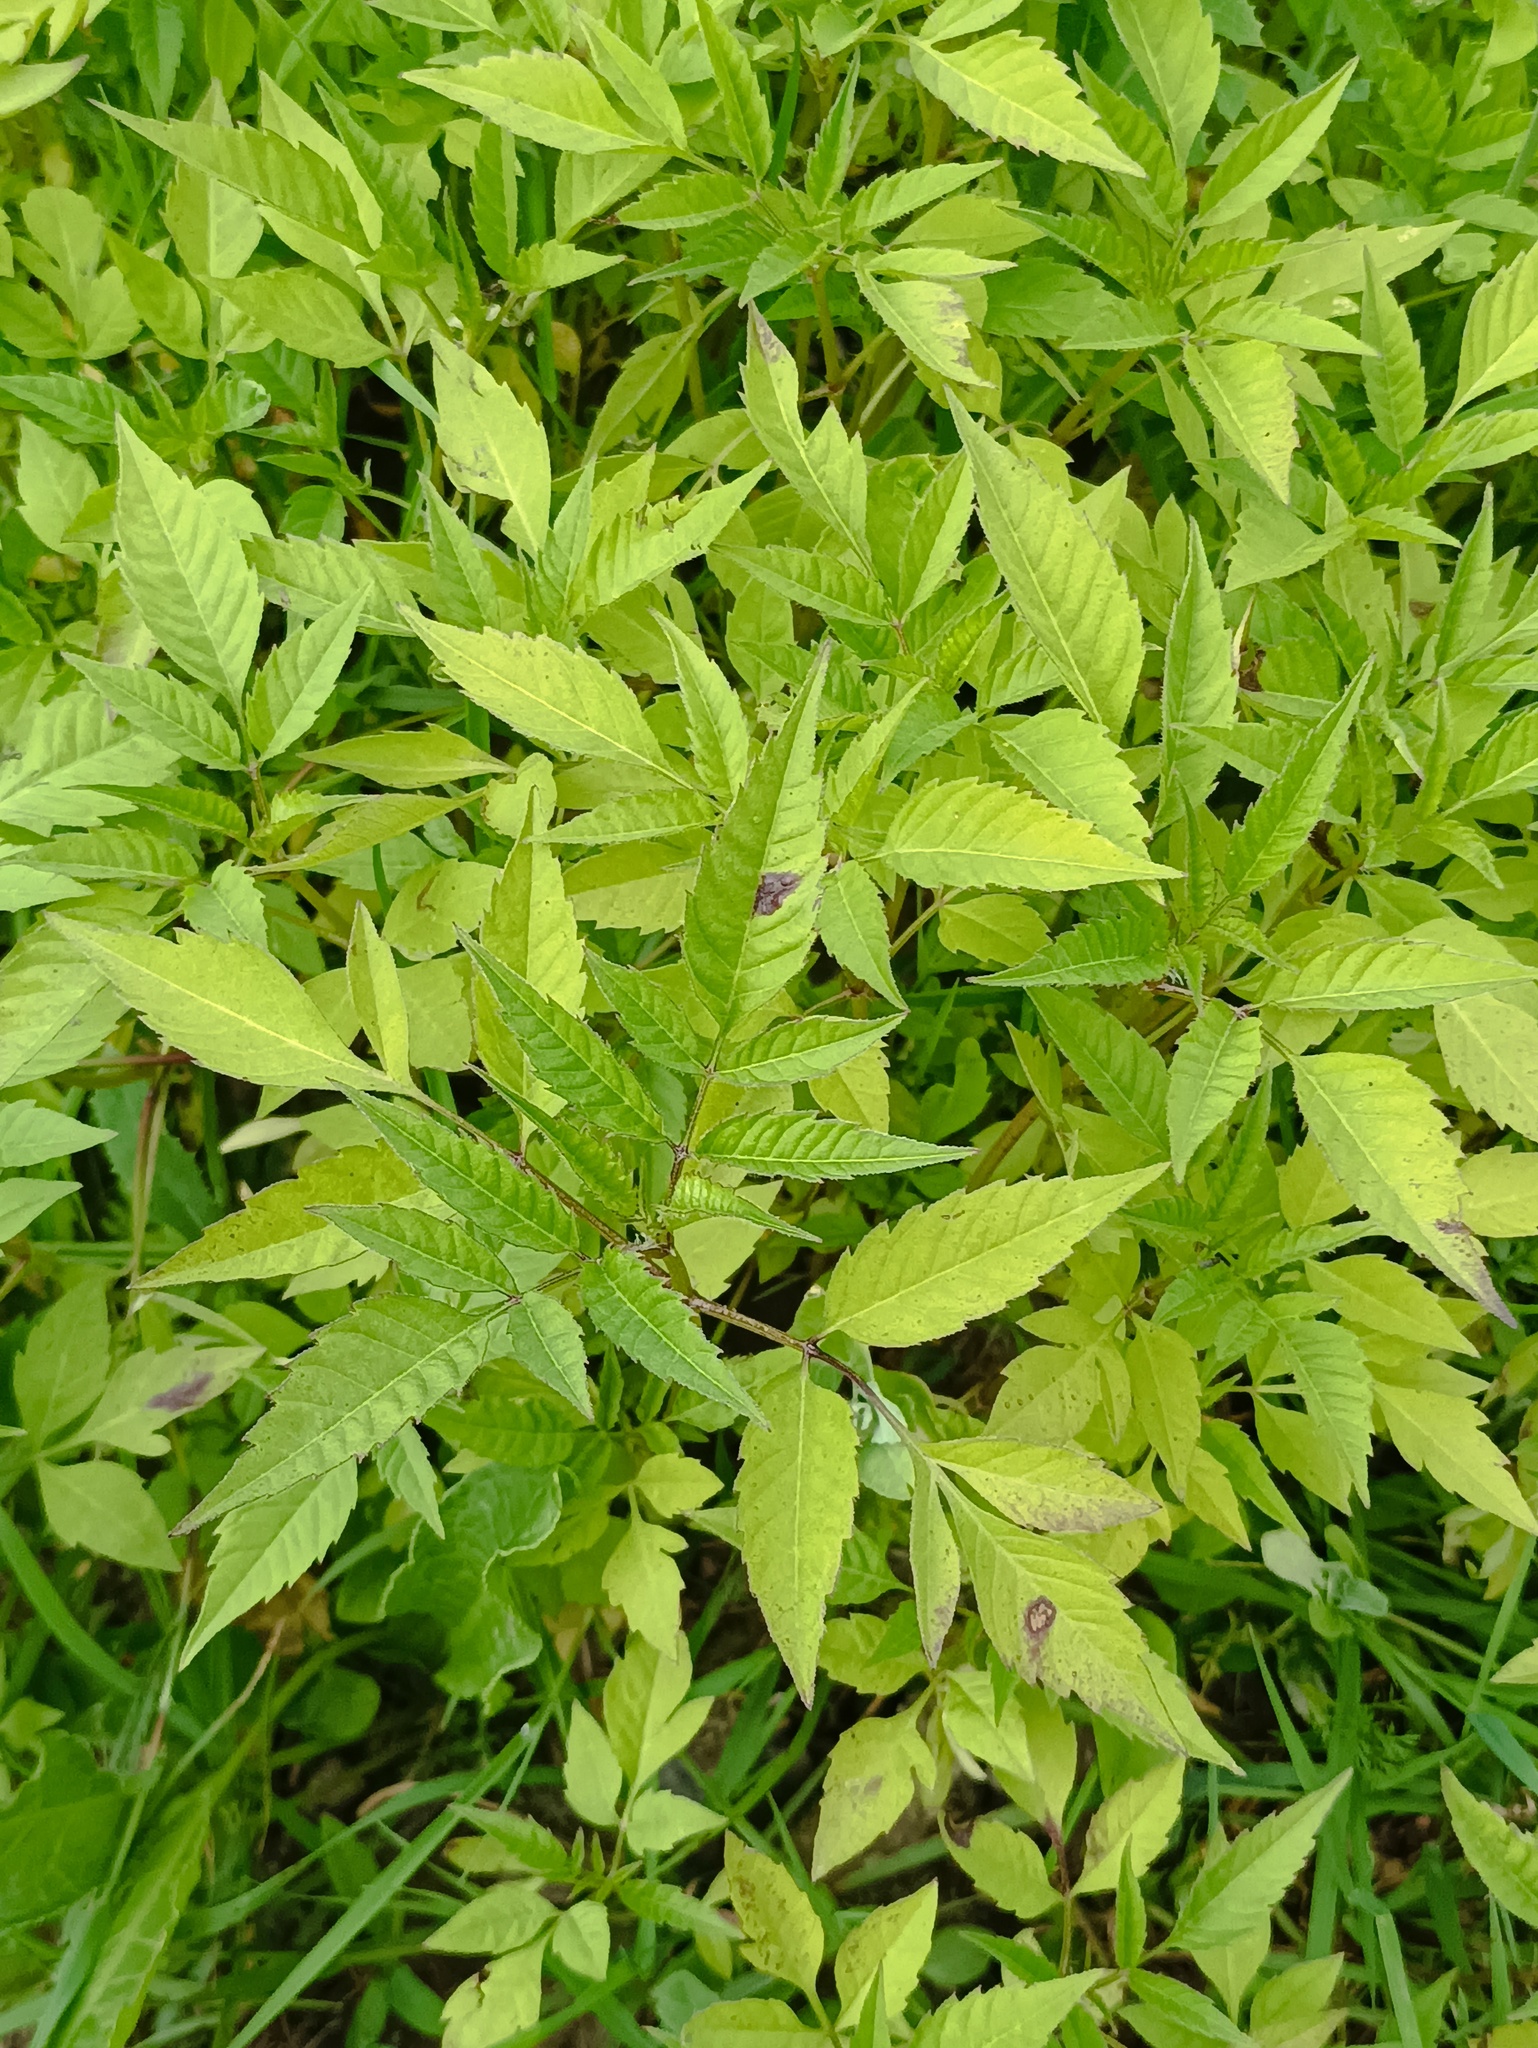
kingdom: Plantae
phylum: Tracheophyta
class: Magnoliopsida
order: Asterales
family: Asteraceae
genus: Bidens
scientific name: Bidens frondosa
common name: Beggarticks
